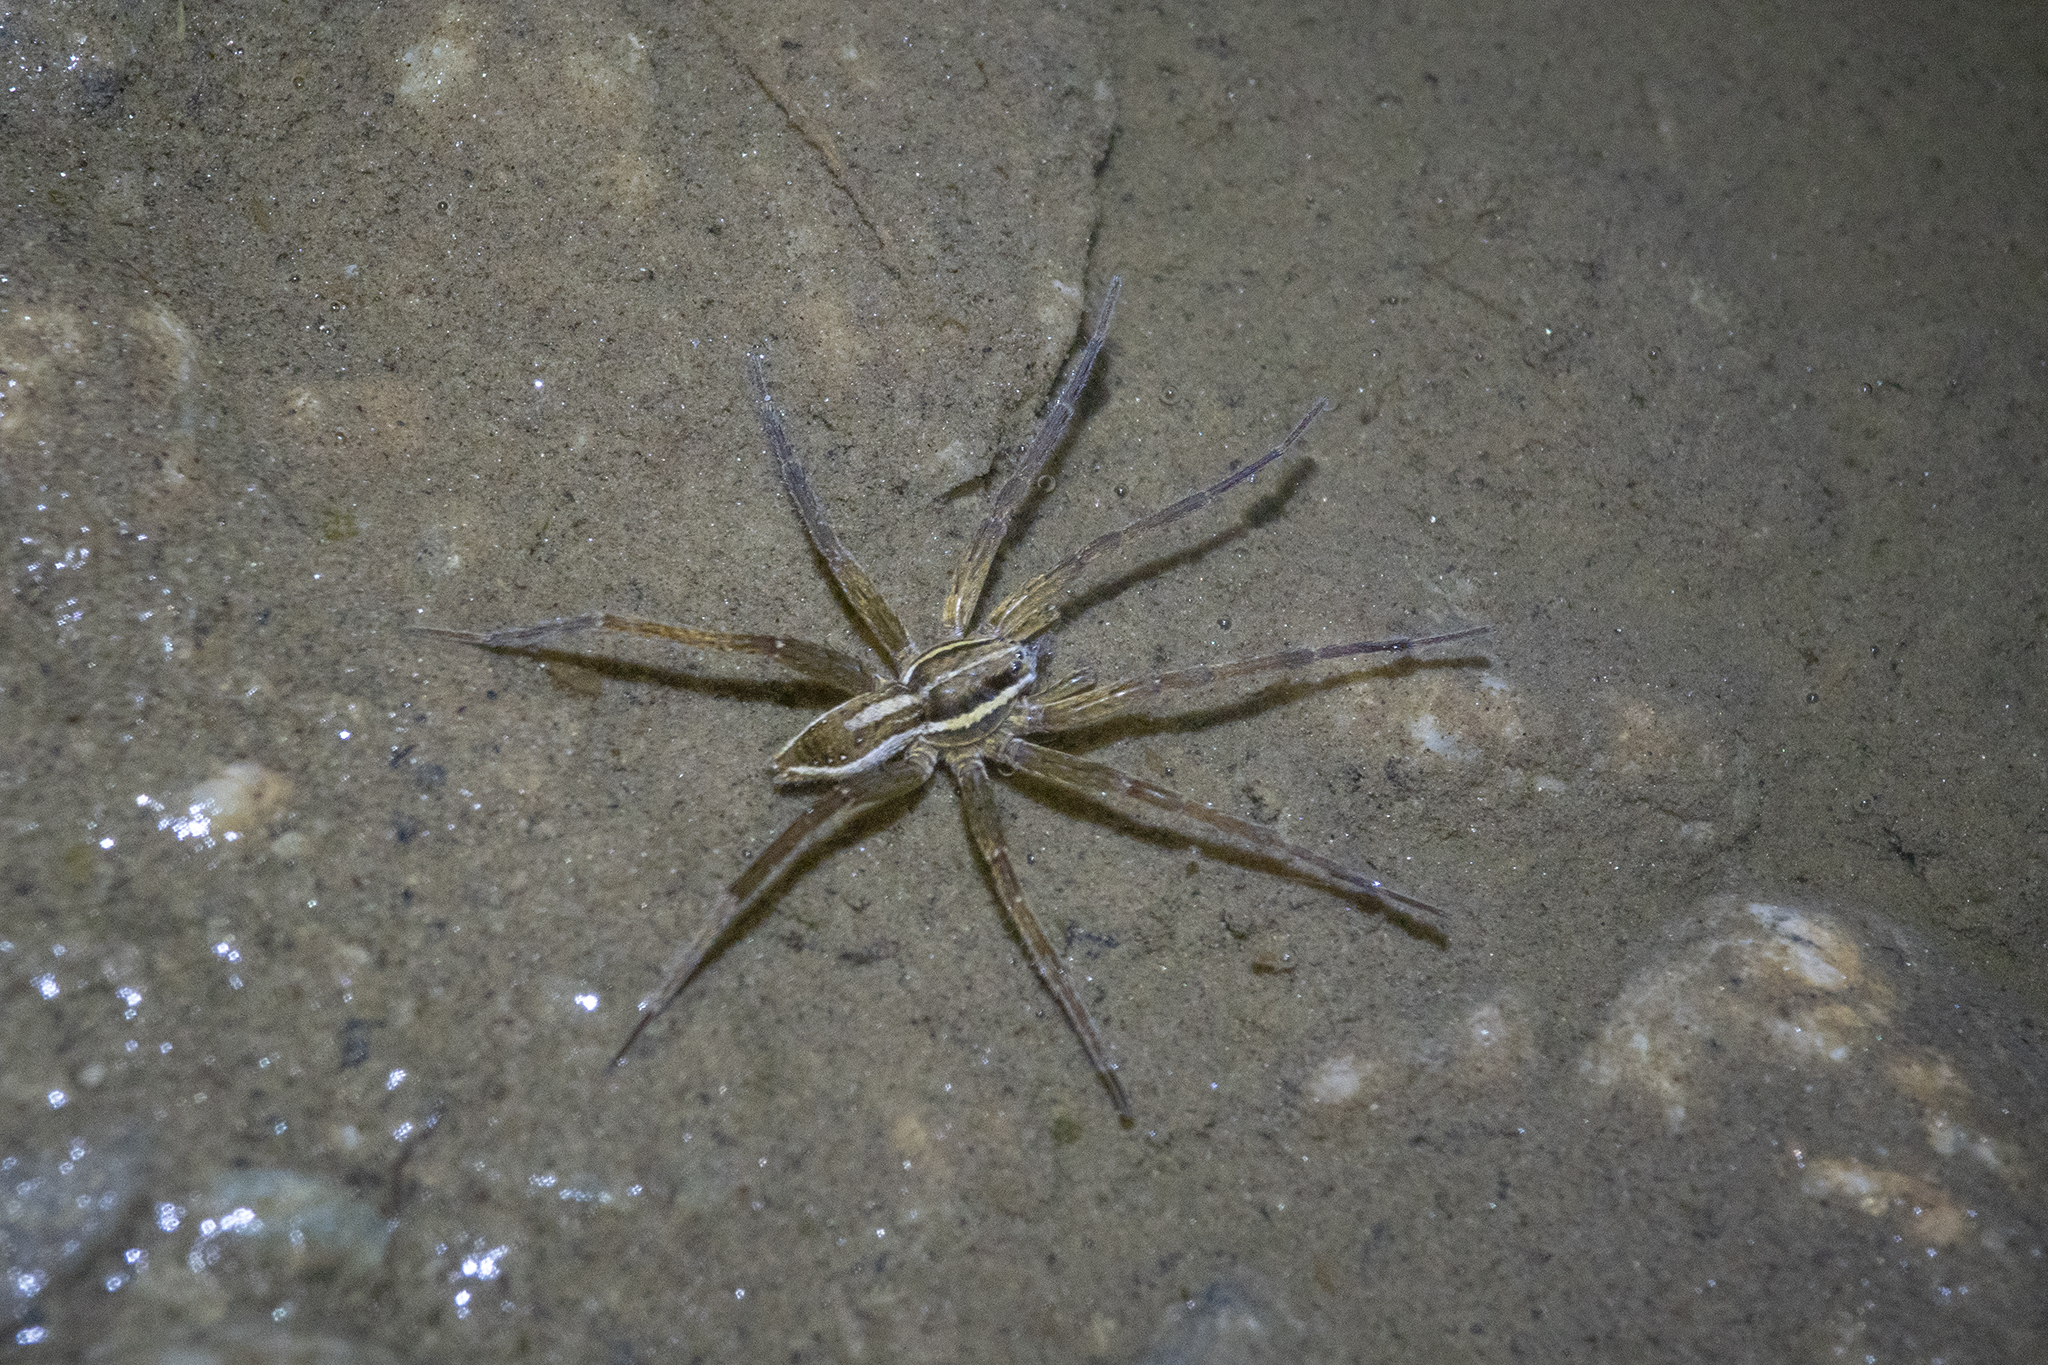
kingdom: Animalia
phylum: Arthropoda
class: Arachnida
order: Araneae
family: Pisauridae
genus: Dolomedes
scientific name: Dolomedes minor
